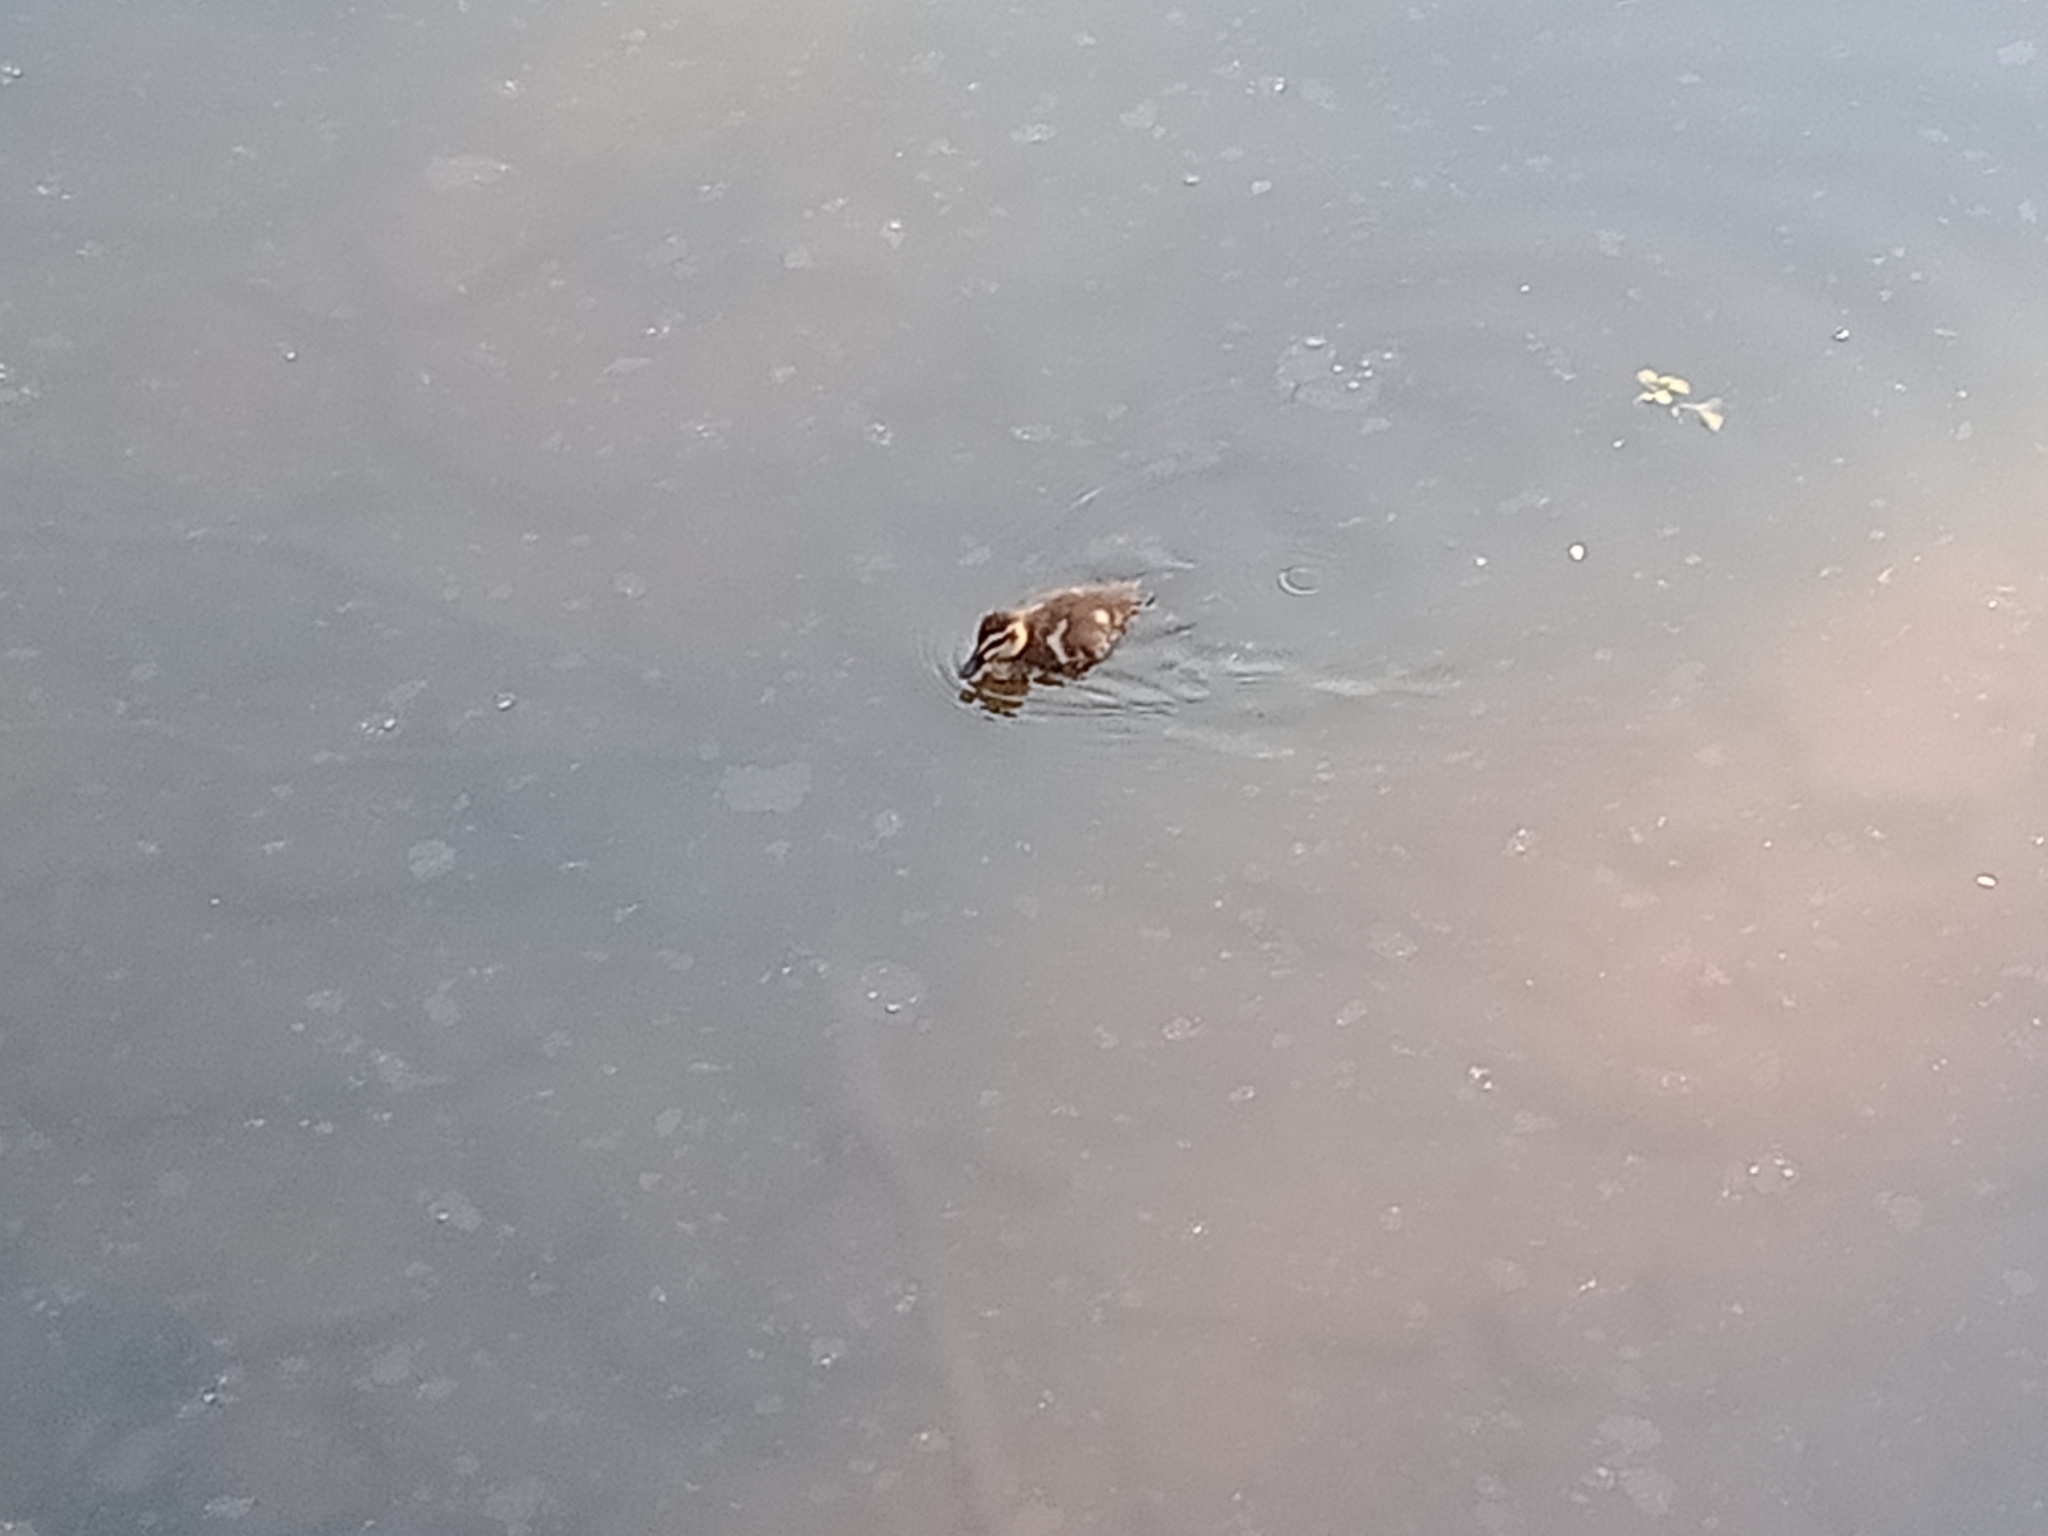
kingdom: Animalia
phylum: Chordata
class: Aves
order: Anseriformes
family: Anatidae
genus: Anas
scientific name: Anas superciliosa
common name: Pacific black duck
